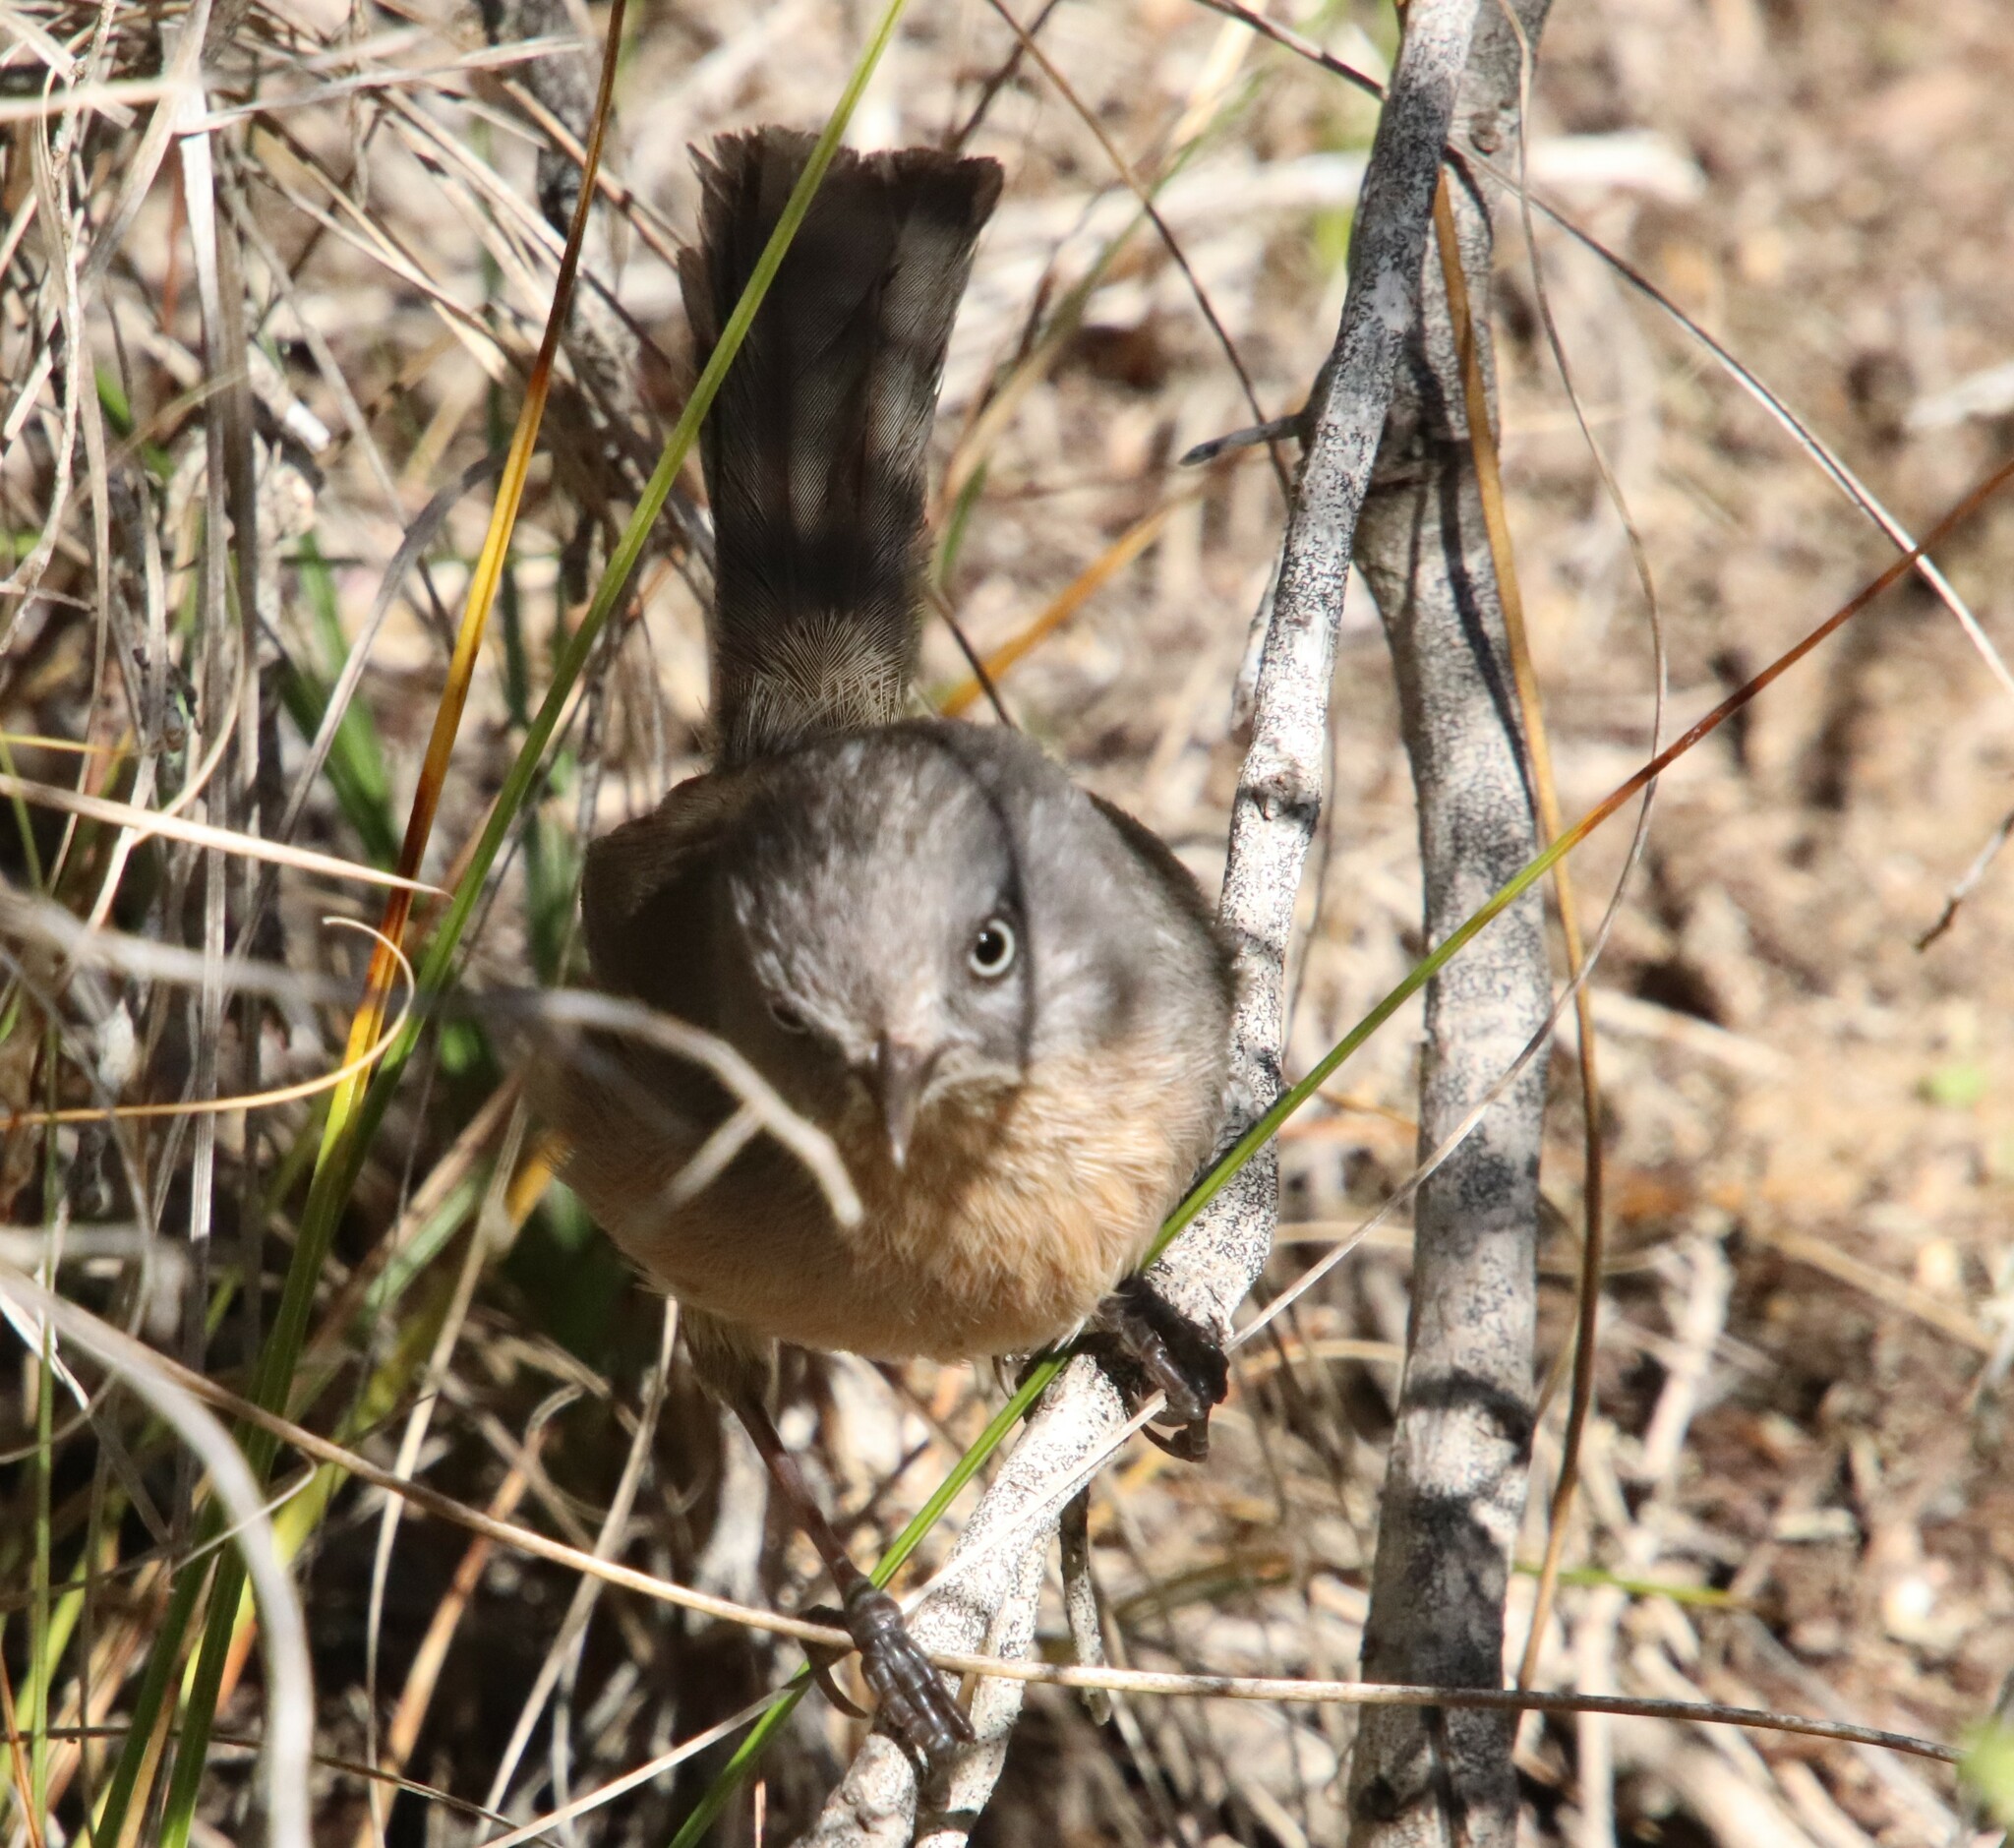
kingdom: Animalia
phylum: Chordata
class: Aves
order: Passeriformes
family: Sylviidae
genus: Chamaea
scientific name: Chamaea fasciata
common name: Wrentit
